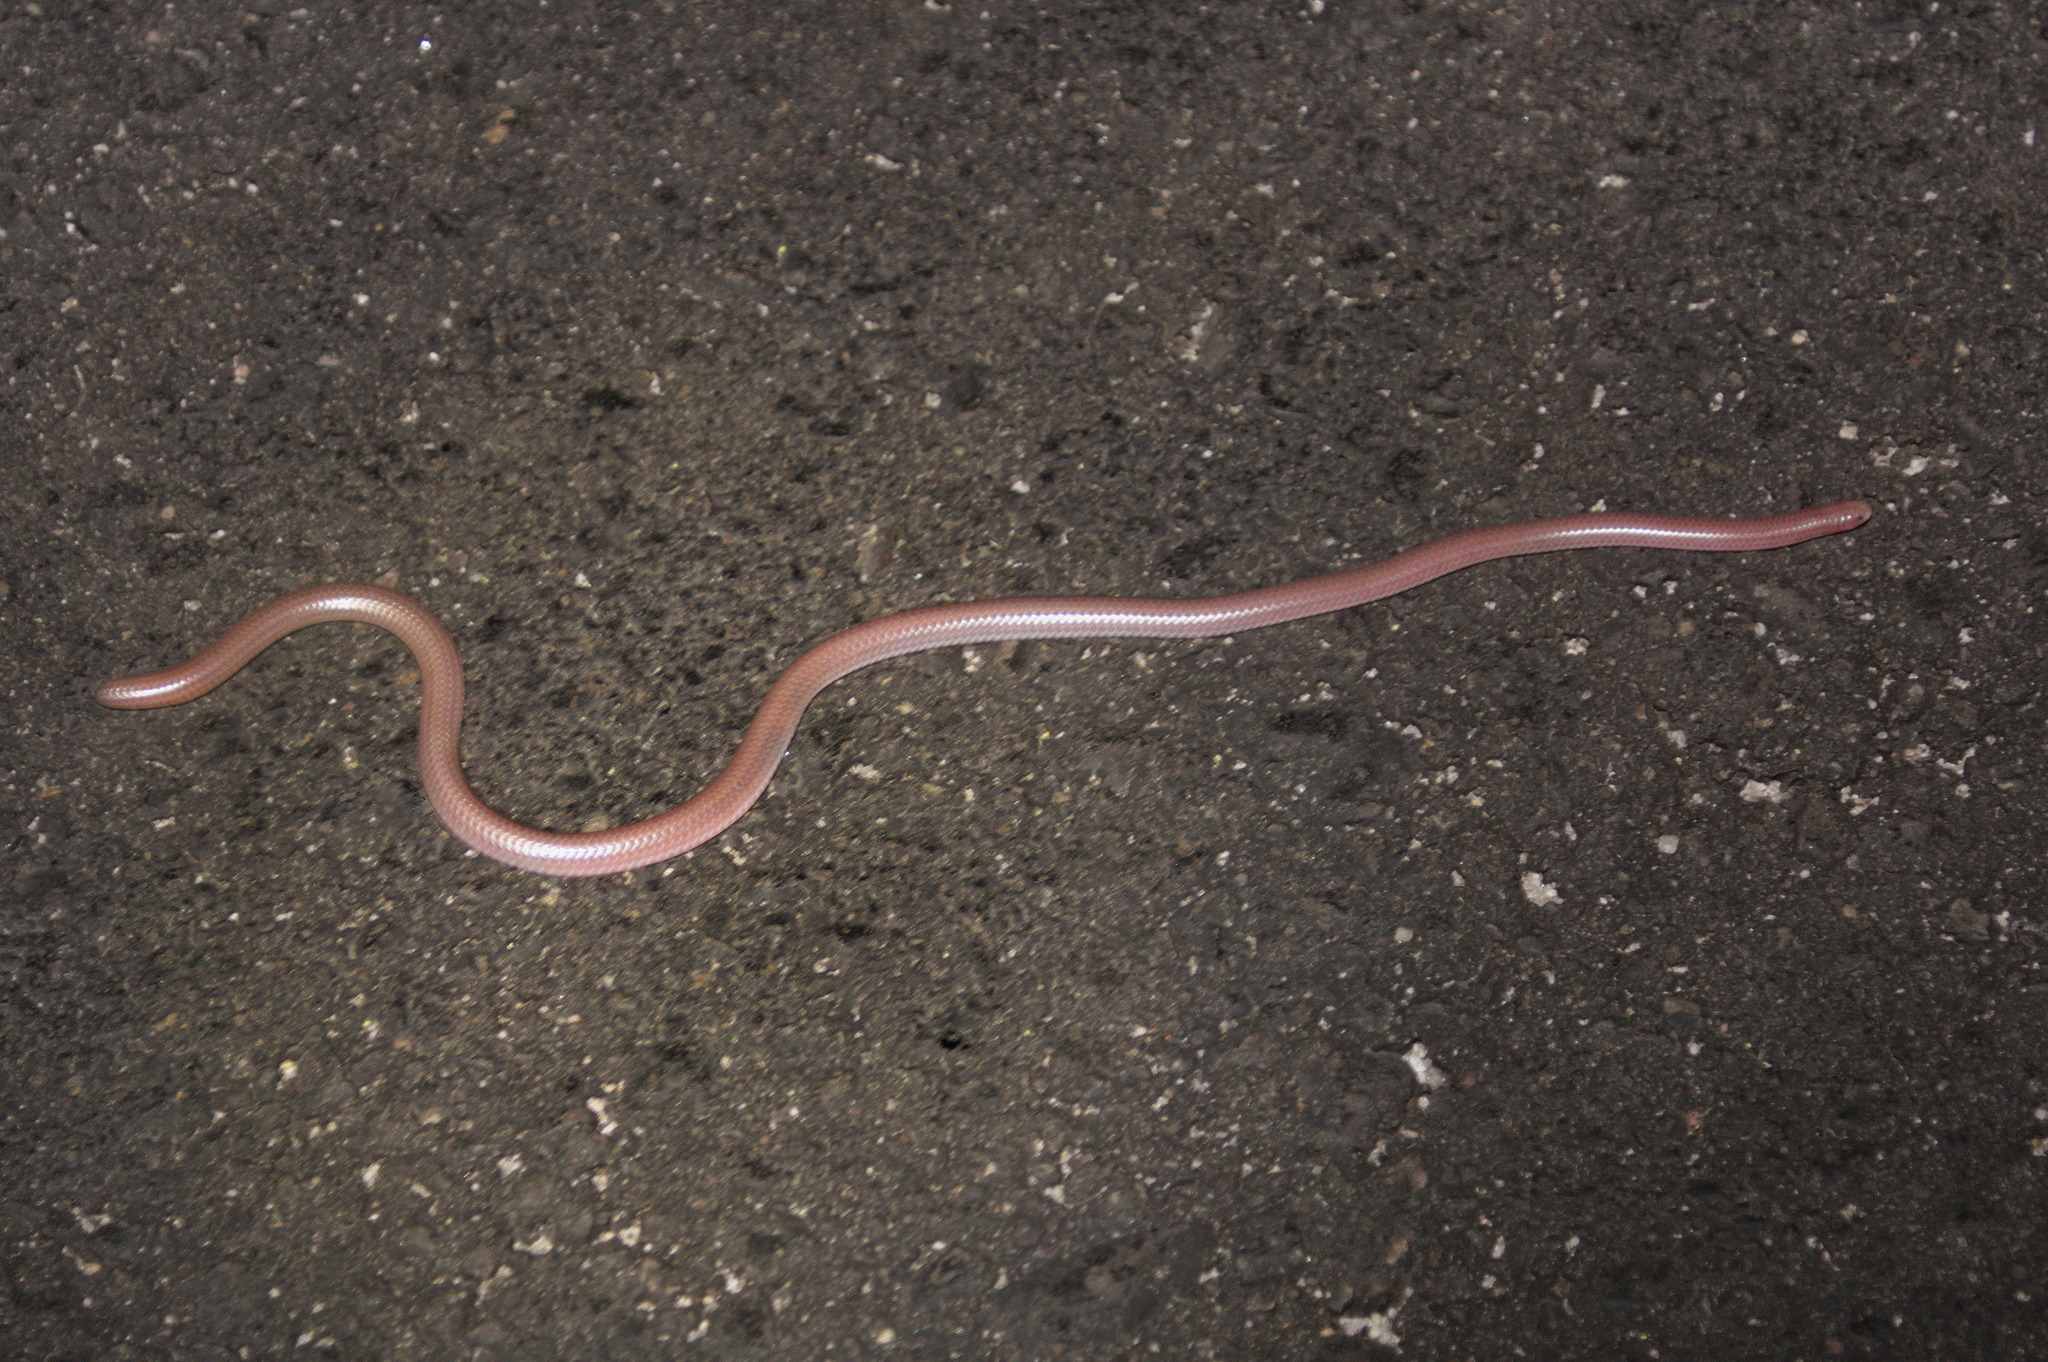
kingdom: Animalia
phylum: Chordata
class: Squamata
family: Leptotyphlopidae
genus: Rena
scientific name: Rena humilis
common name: Western threadsnake
